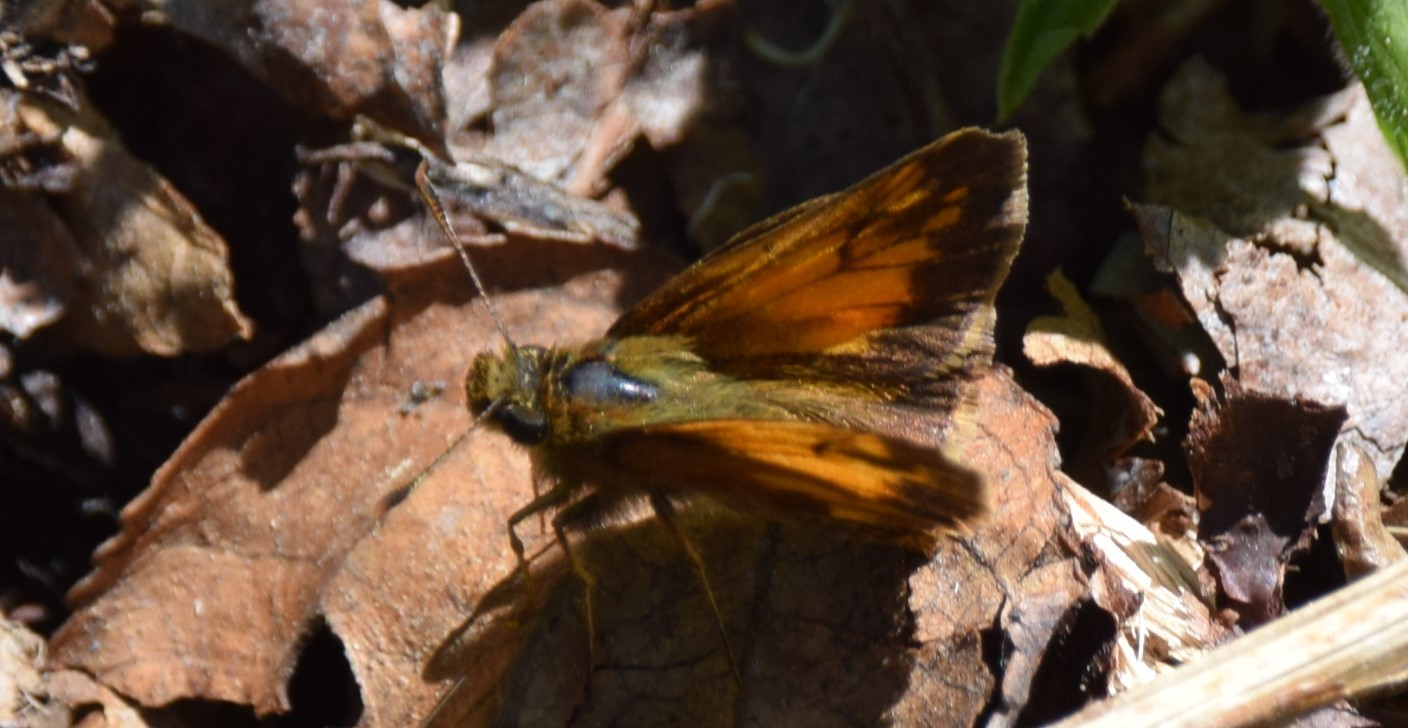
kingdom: Animalia
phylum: Arthropoda
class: Insecta
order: Lepidoptera
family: Hesperiidae
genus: Lon
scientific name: Lon hobomok
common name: Hobomok skipper
